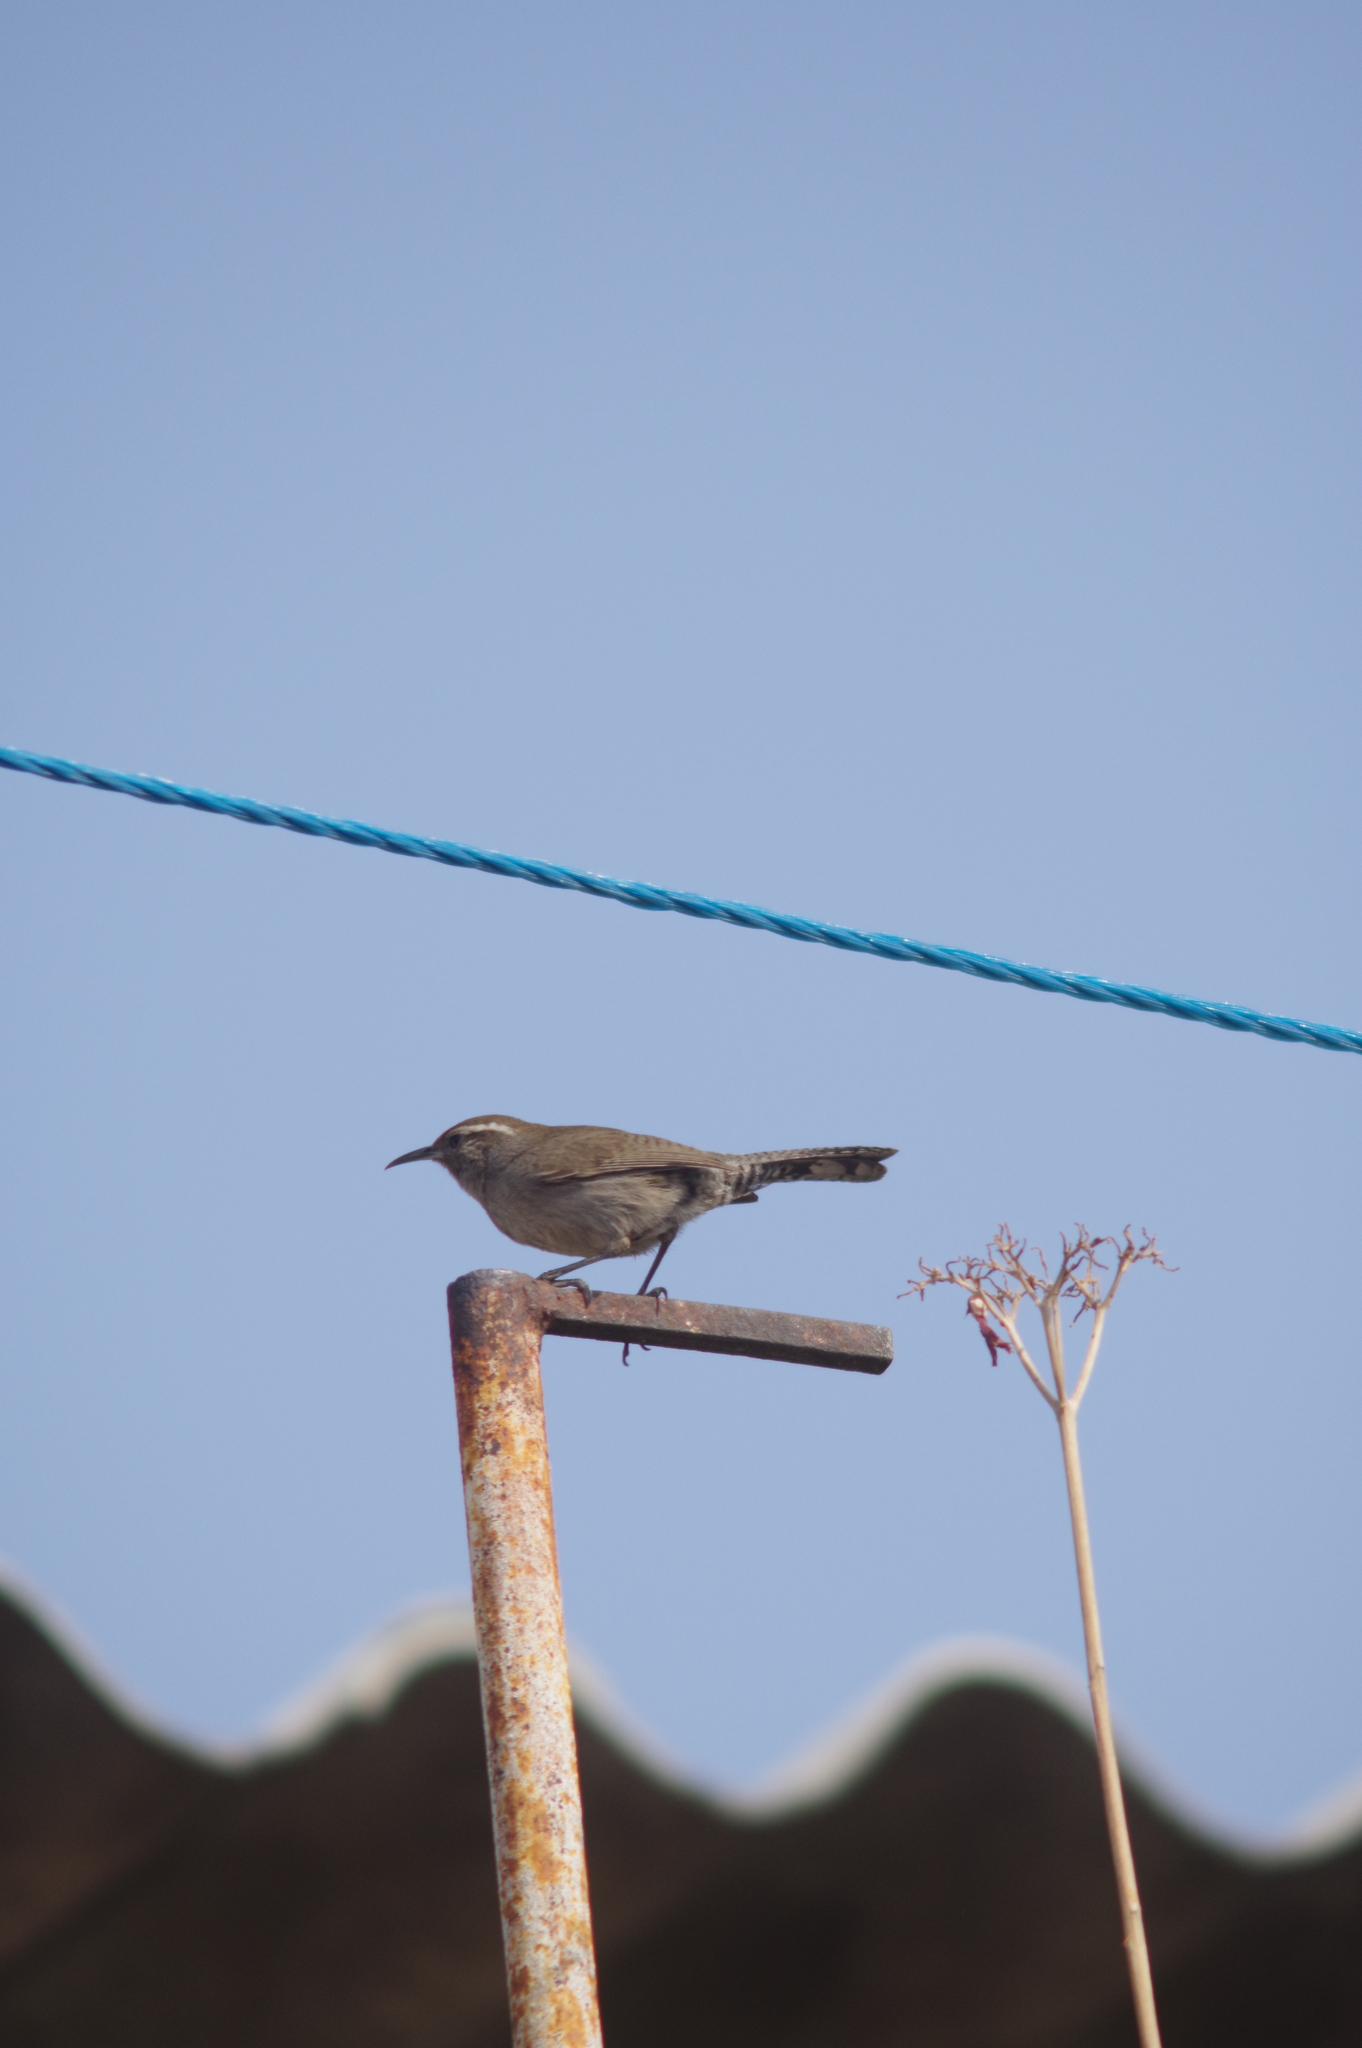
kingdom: Animalia
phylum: Chordata
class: Aves
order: Passeriformes
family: Troglodytidae
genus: Thryomanes
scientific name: Thryomanes bewickii
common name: Bewick's wren
